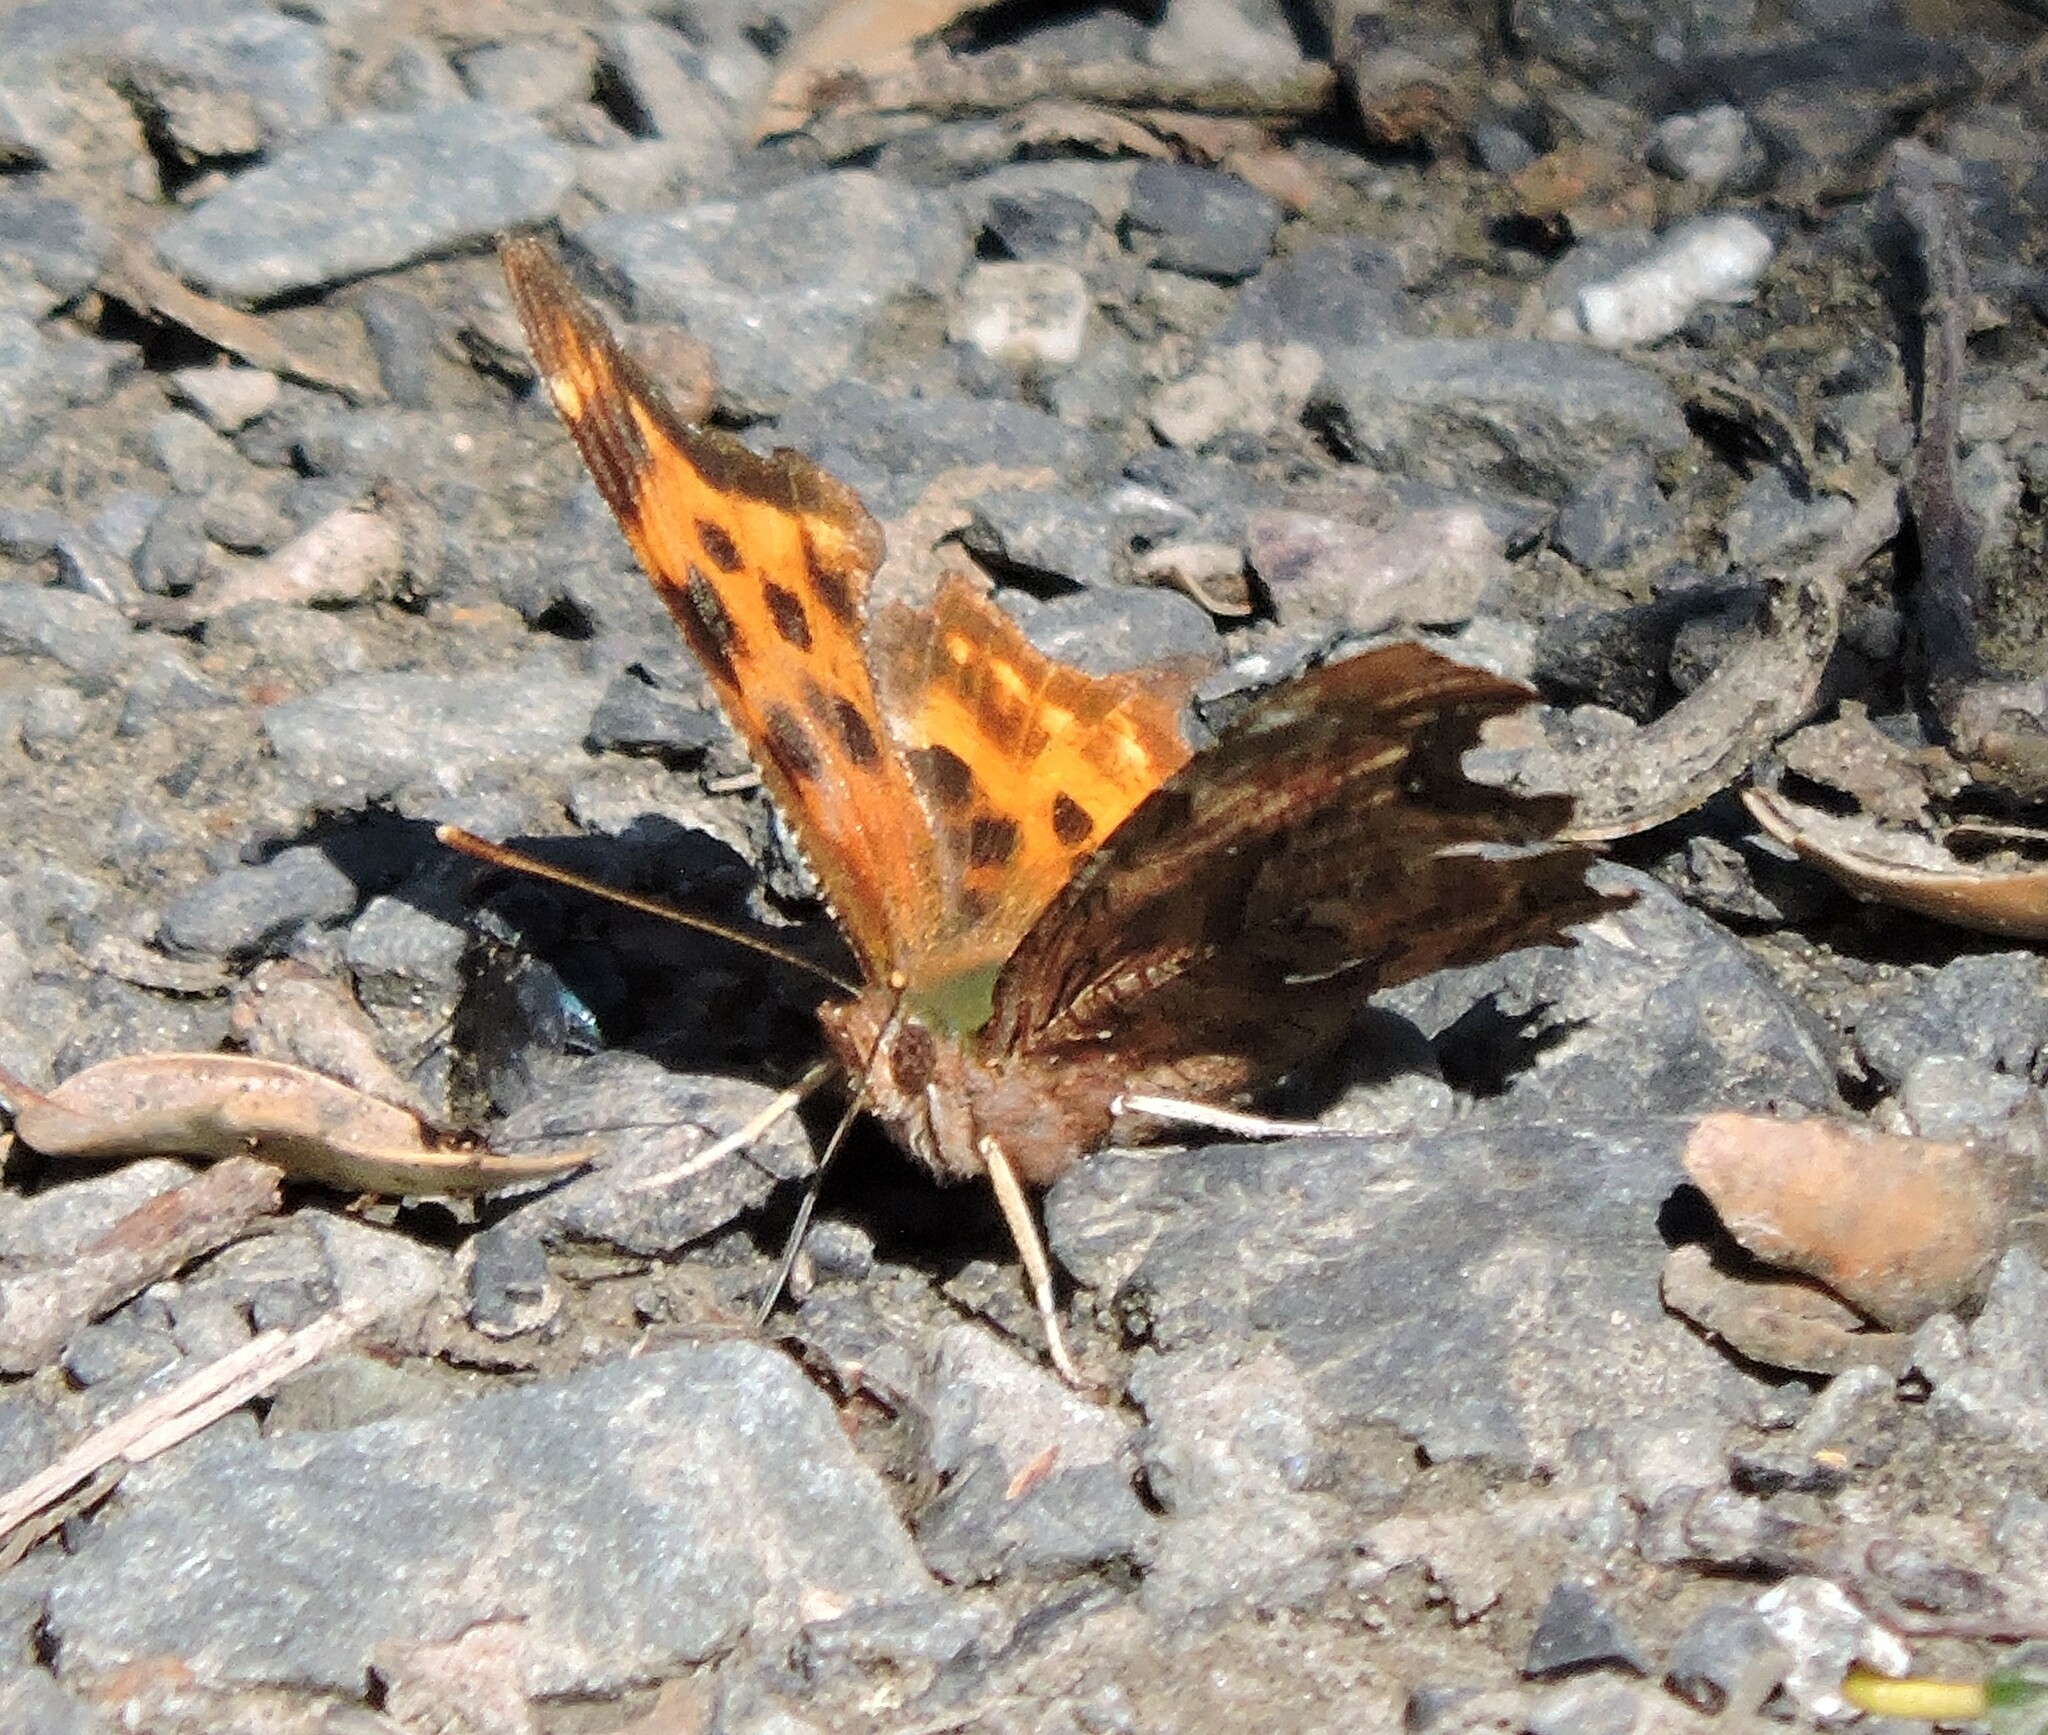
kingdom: Animalia
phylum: Arthropoda
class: Insecta
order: Lepidoptera
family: Nymphalidae
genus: Polygonia
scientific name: Polygonia satyrus
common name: Satyr angle wing
